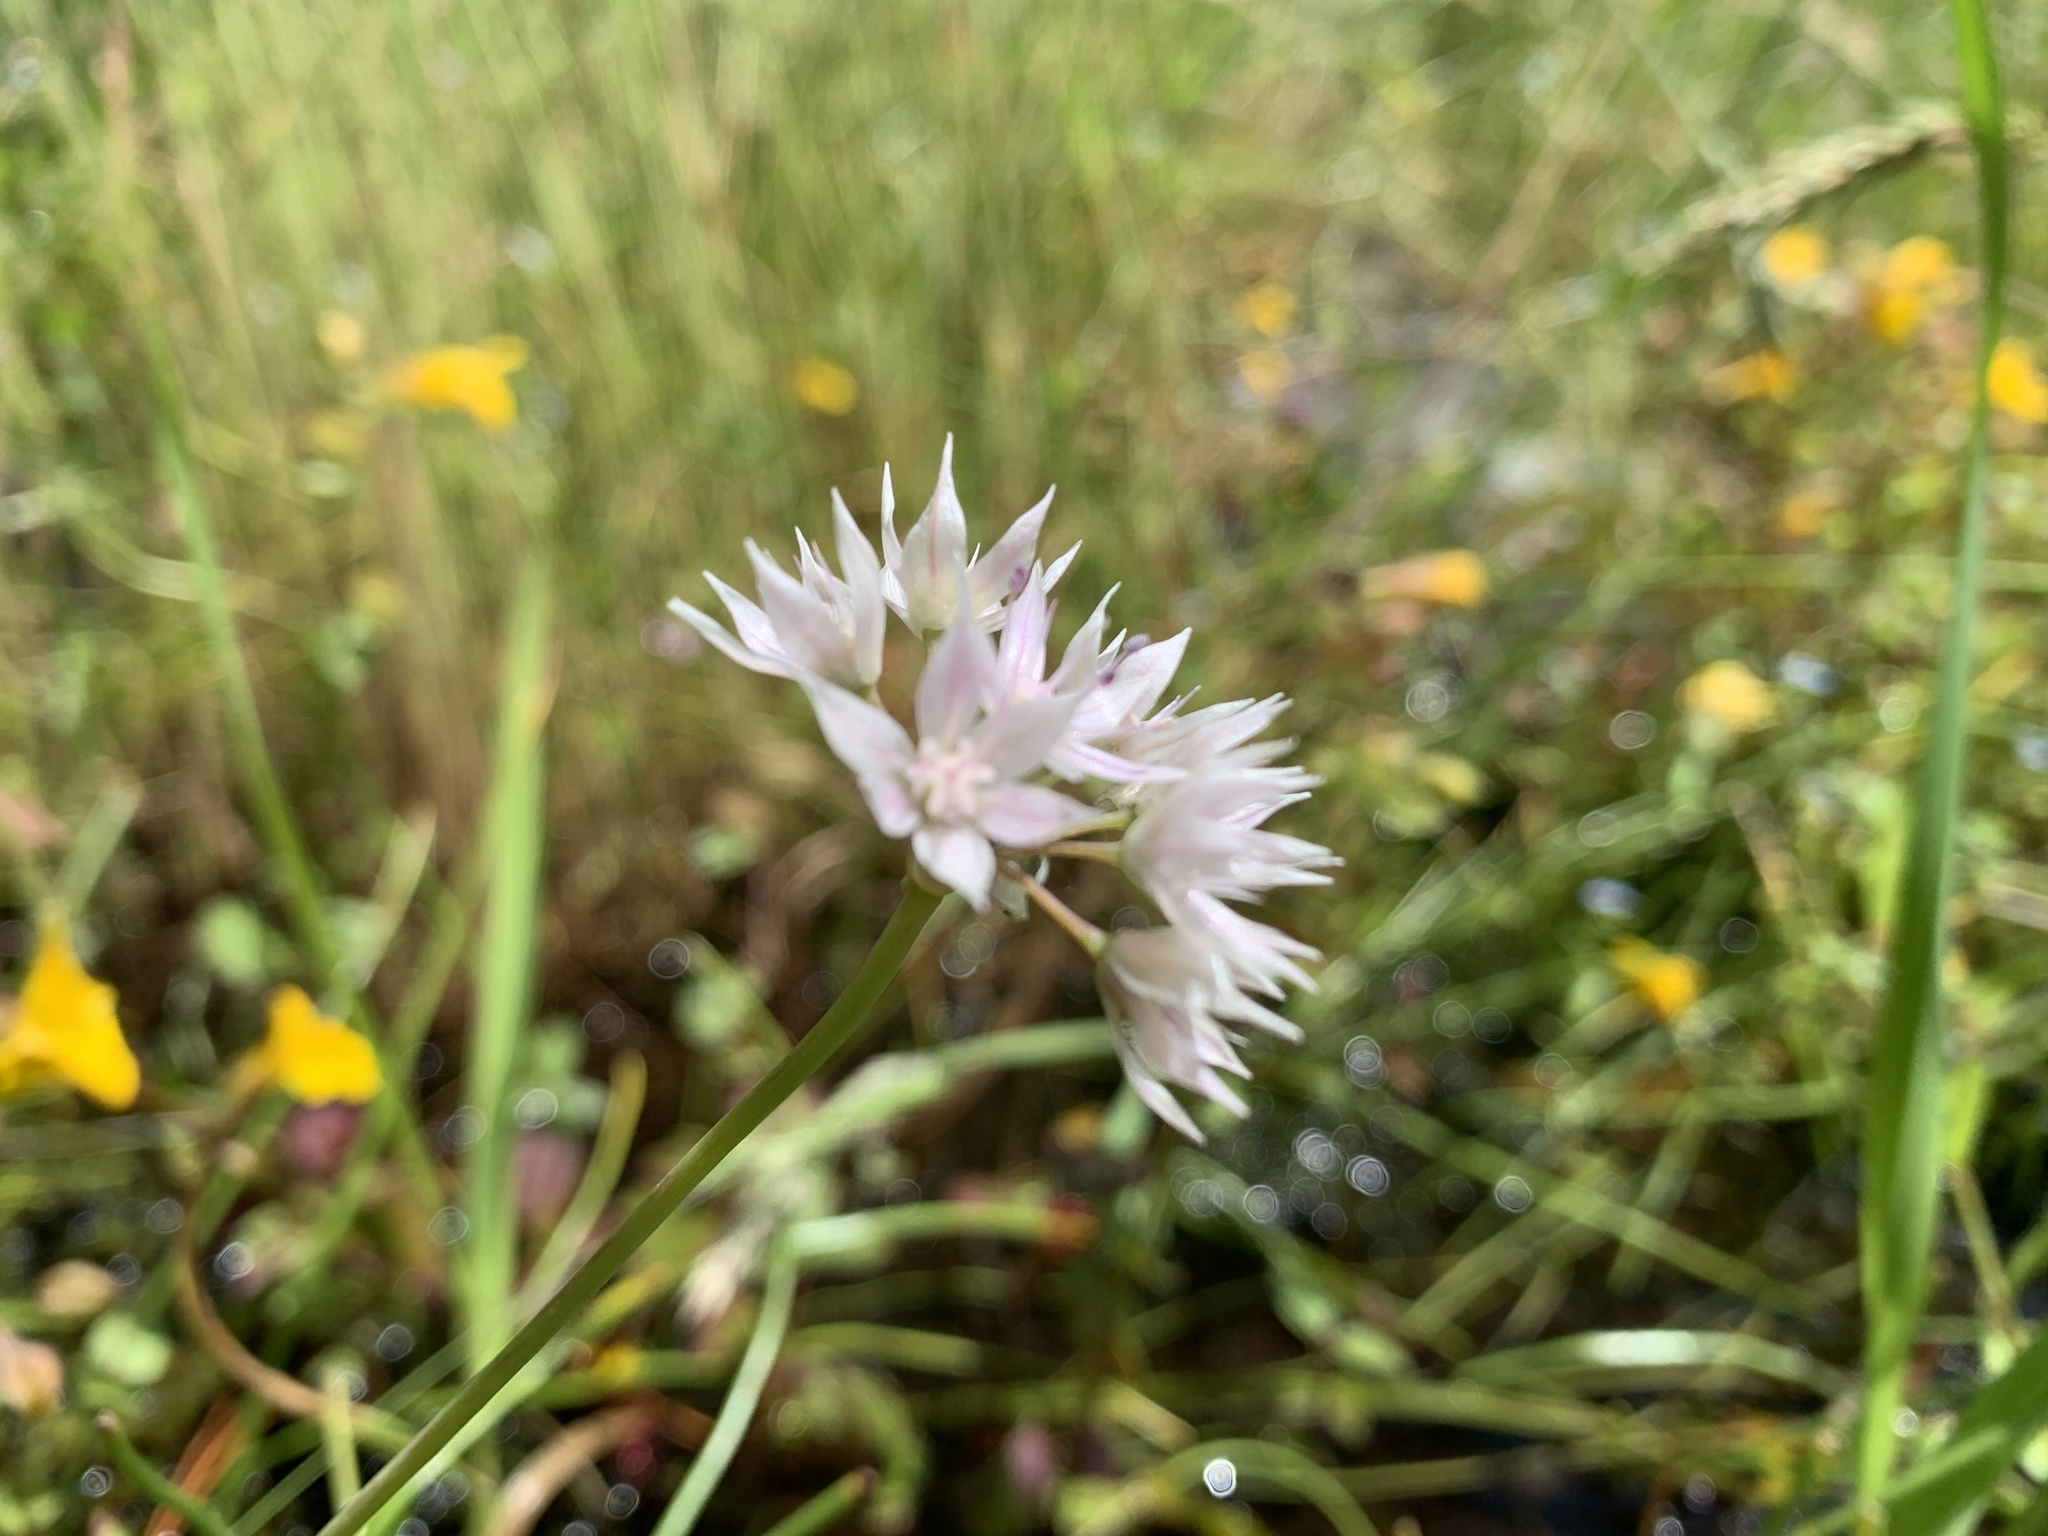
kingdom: Plantae
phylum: Tracheophyta
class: Liliopsida
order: Asparagales
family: Amaryllidaceae
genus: Allium
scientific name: Allium amplectens
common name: Narrow-leaved onion
